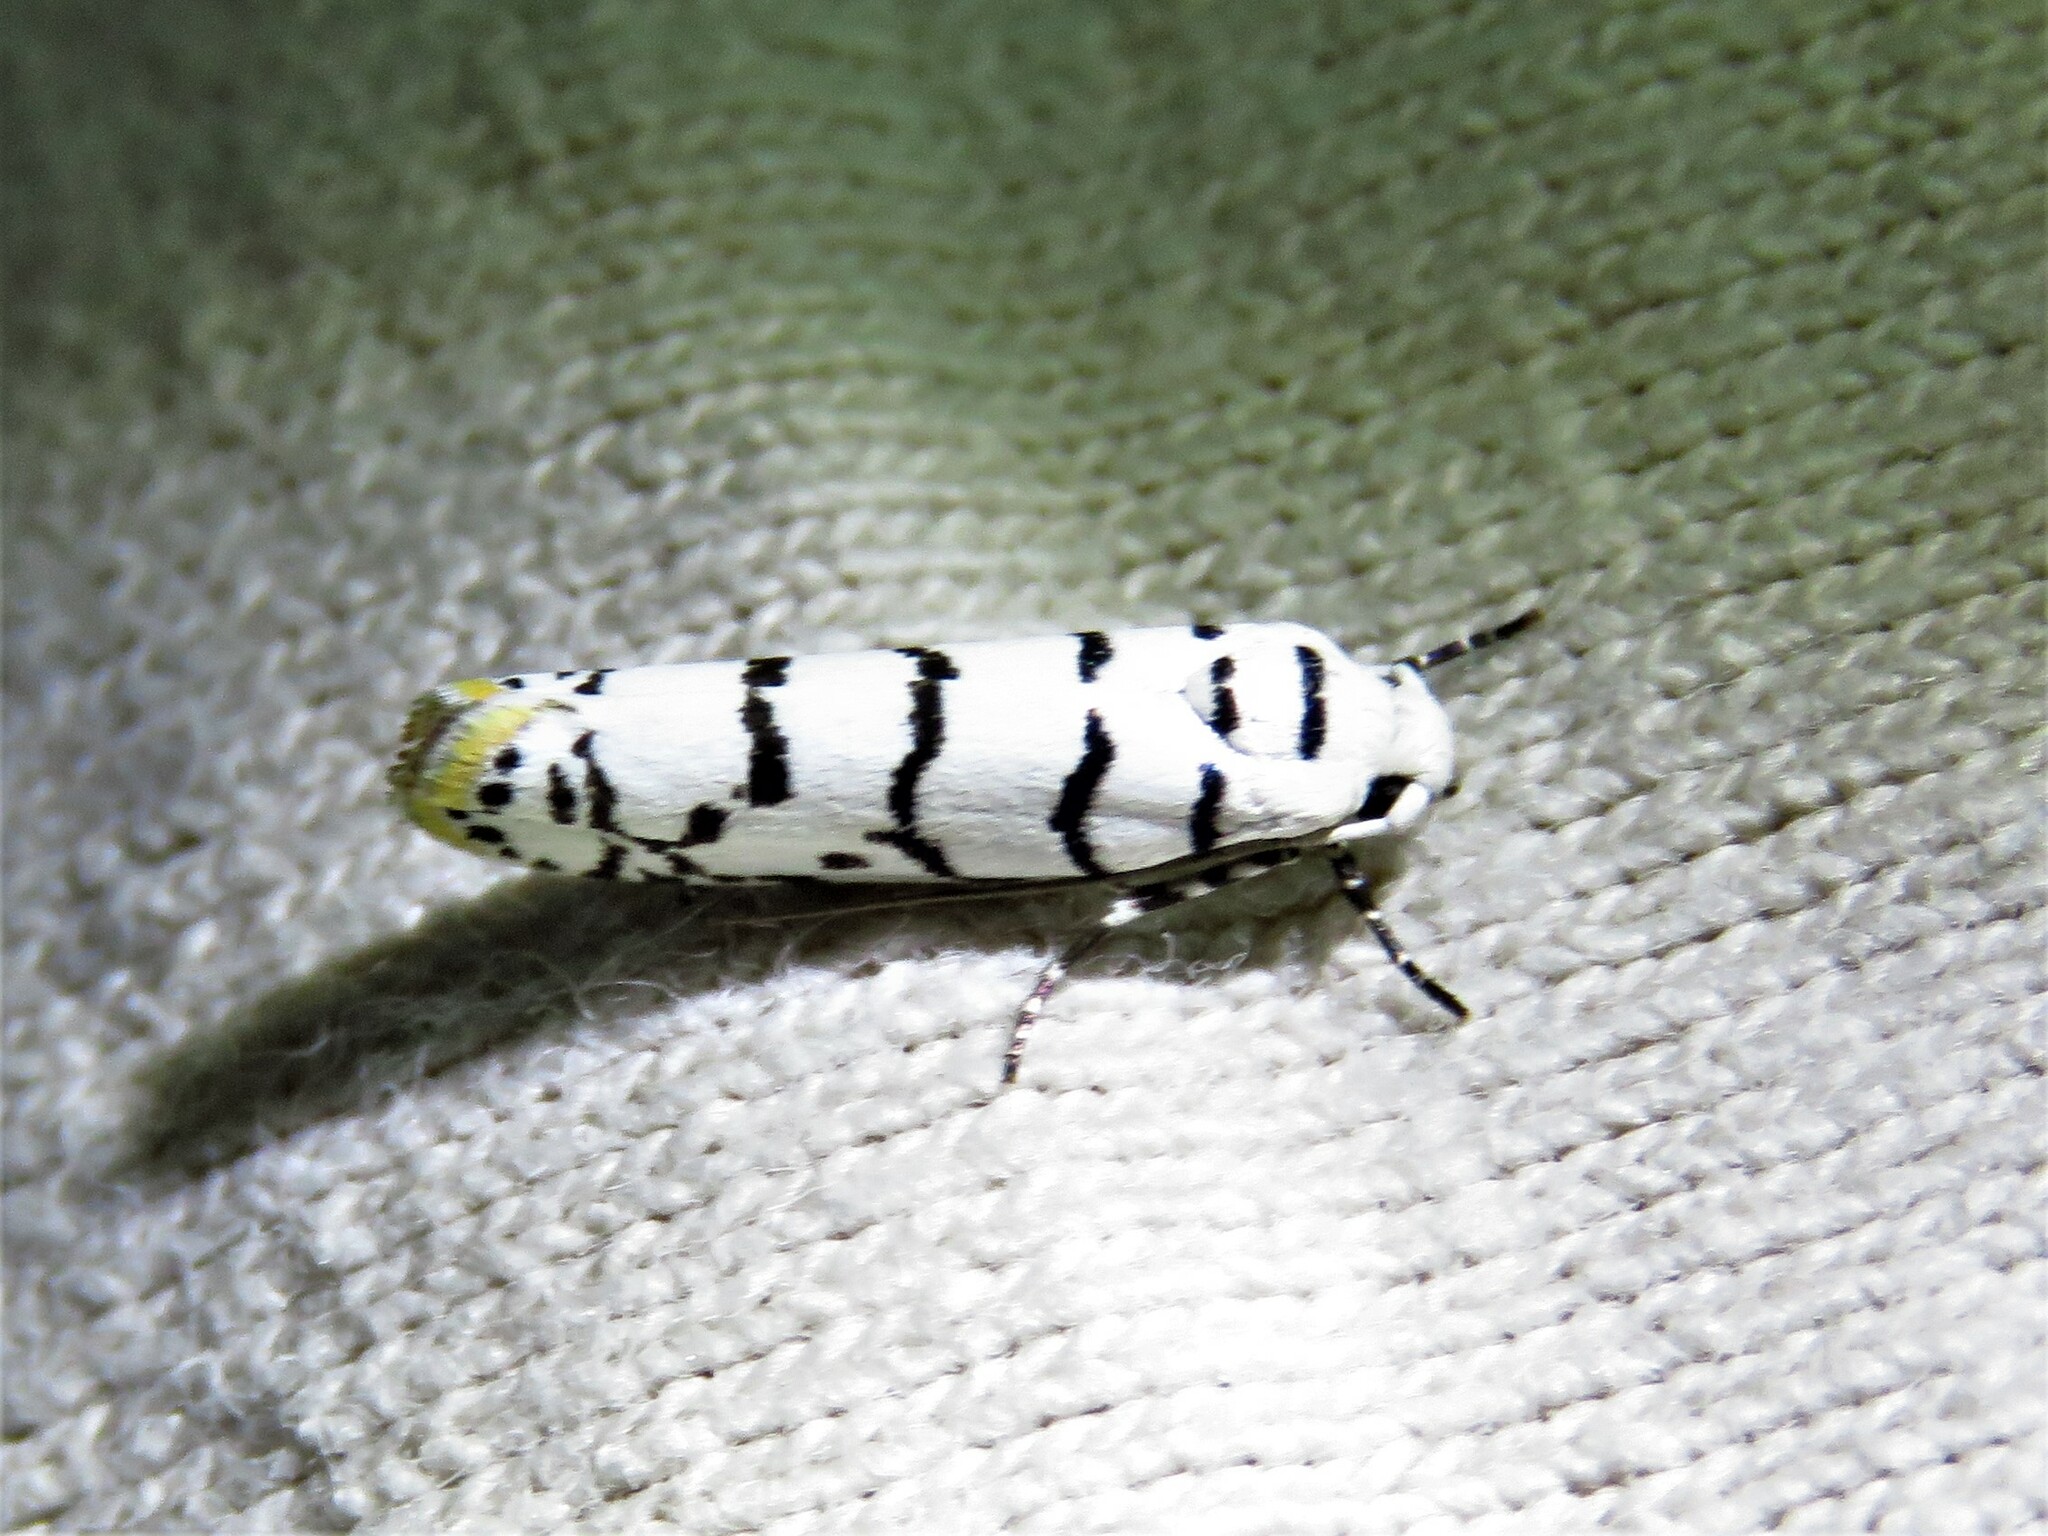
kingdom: Animalia
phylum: Arthropoda
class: Insecta
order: Lepidoptera
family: Ethmiidae
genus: Ethmia
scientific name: Ethmia delliella
